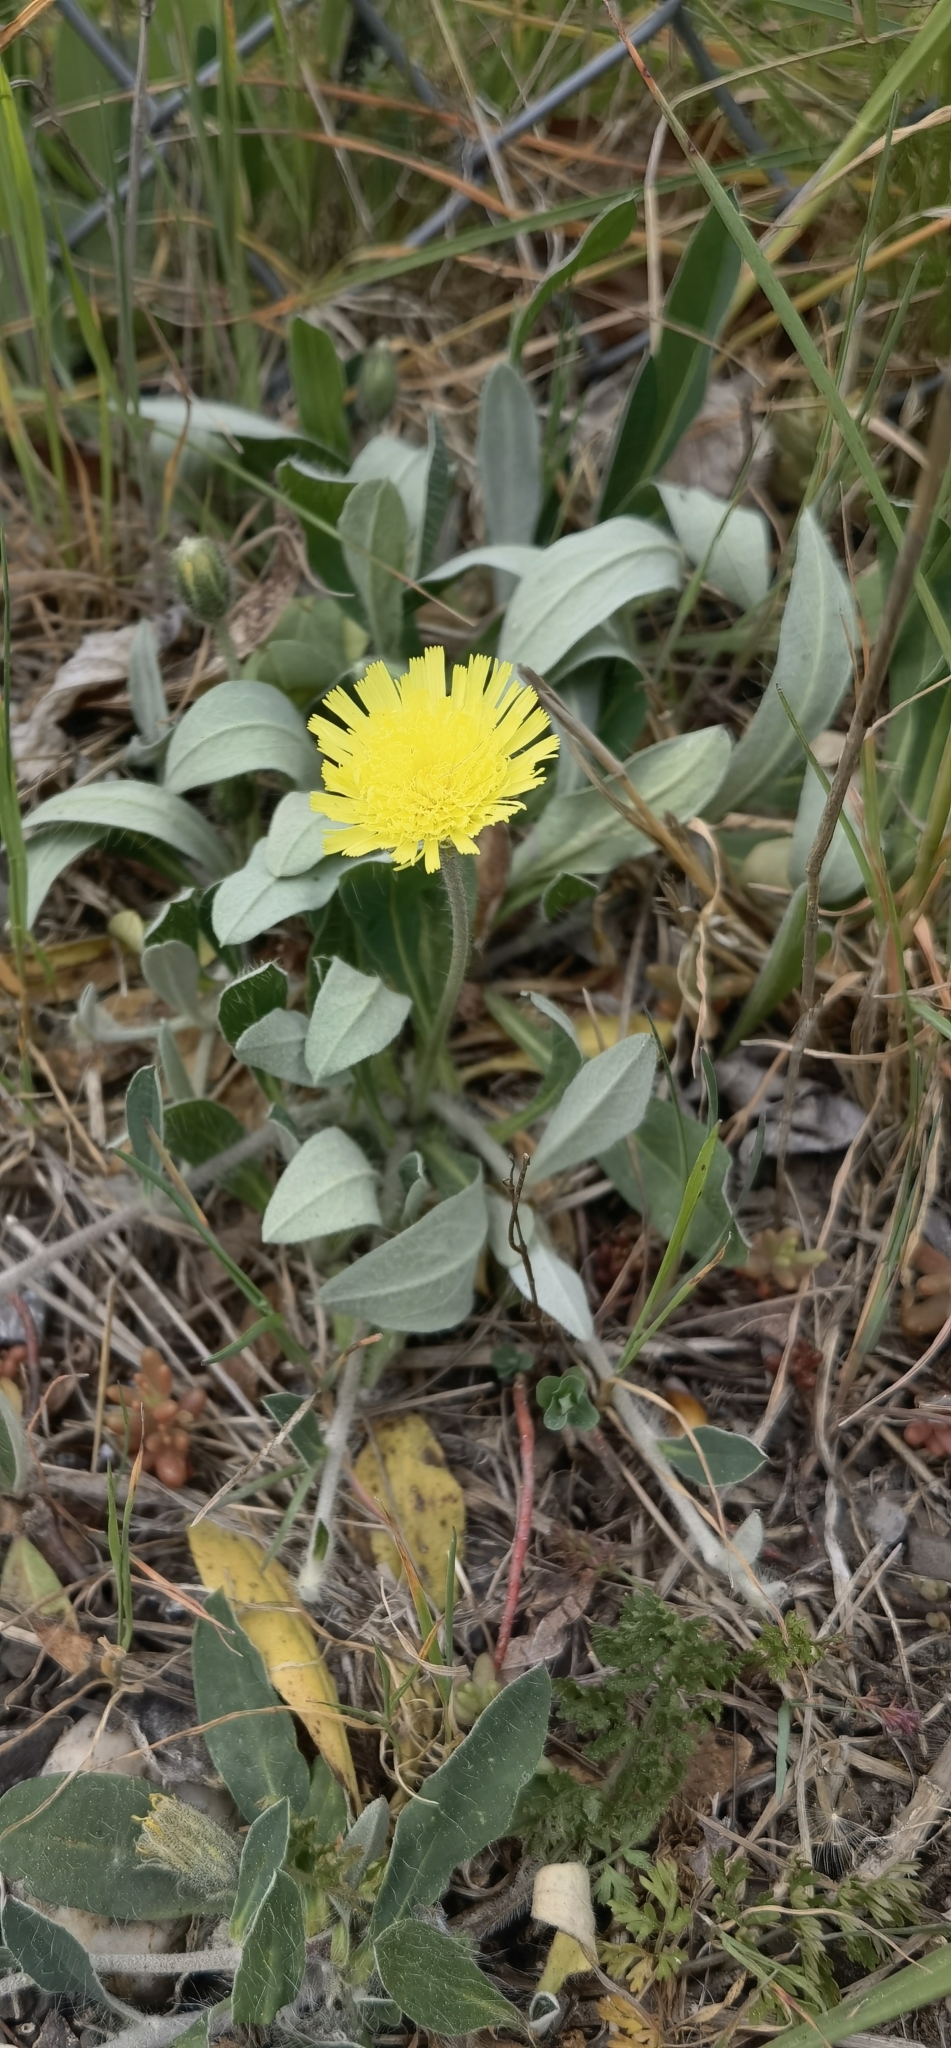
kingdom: Plantae
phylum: Tracheophyta
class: Magnoliopsida
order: Asterales
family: Asteraceae
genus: Pilosella
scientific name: Pilosella officinarum
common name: Mouse-ear hawkweed
